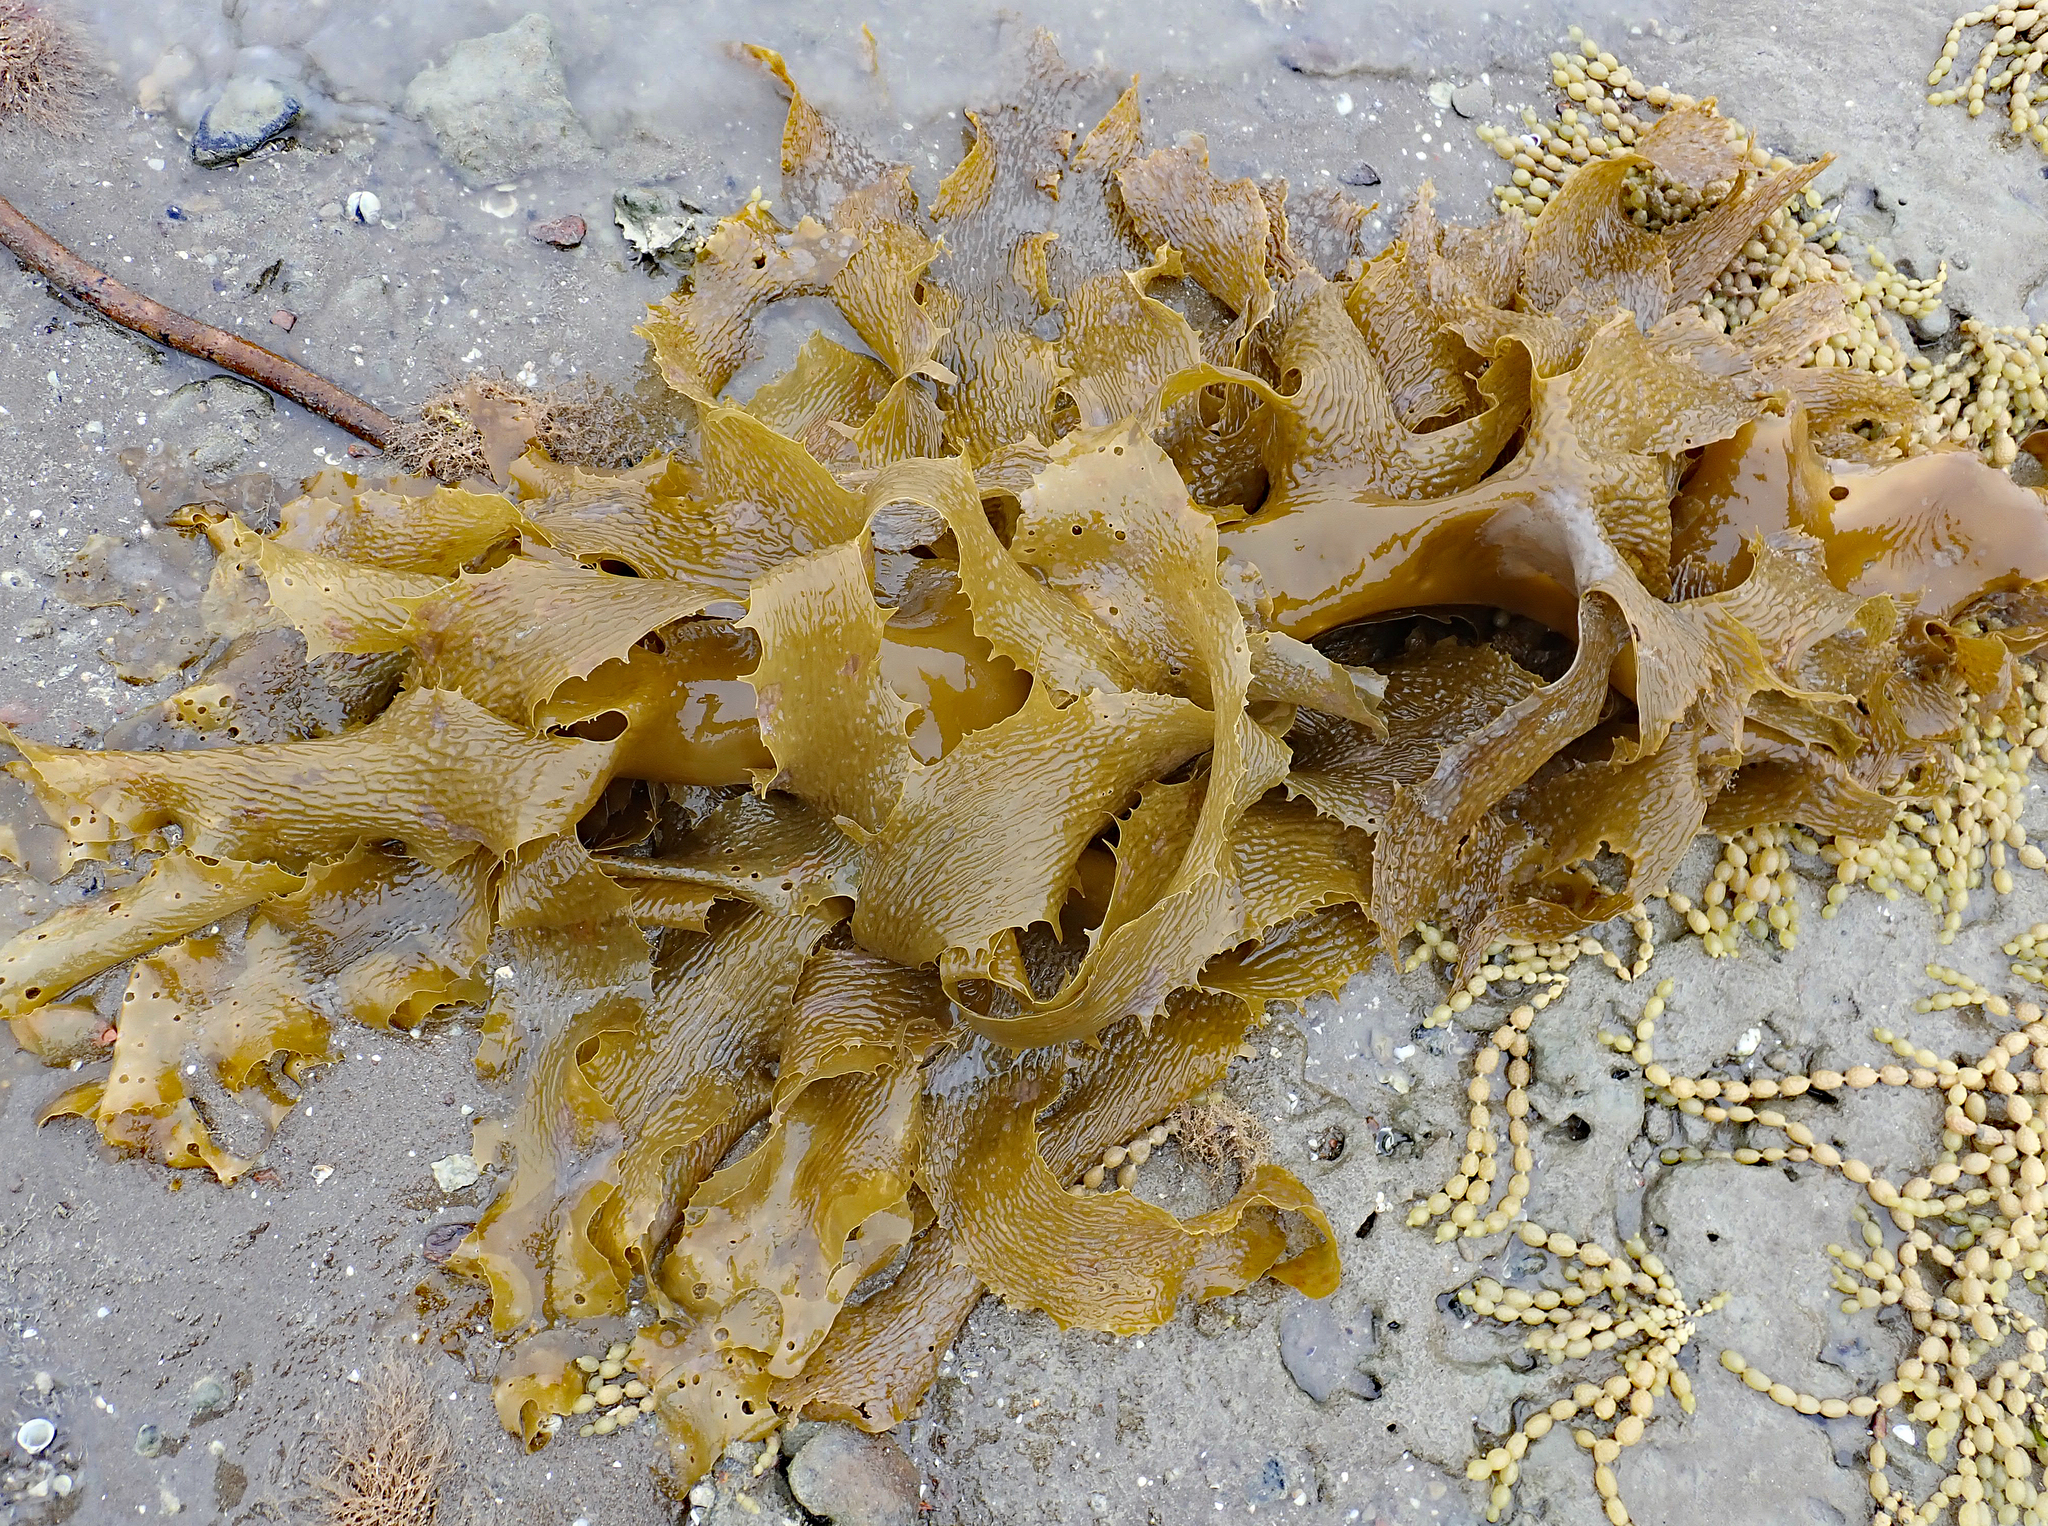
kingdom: Chromista
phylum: Ochrophyta
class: Phaeophyceae
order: Laminariales
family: Lessoniaceae
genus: Ecklonia
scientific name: Ecklonia radiata
